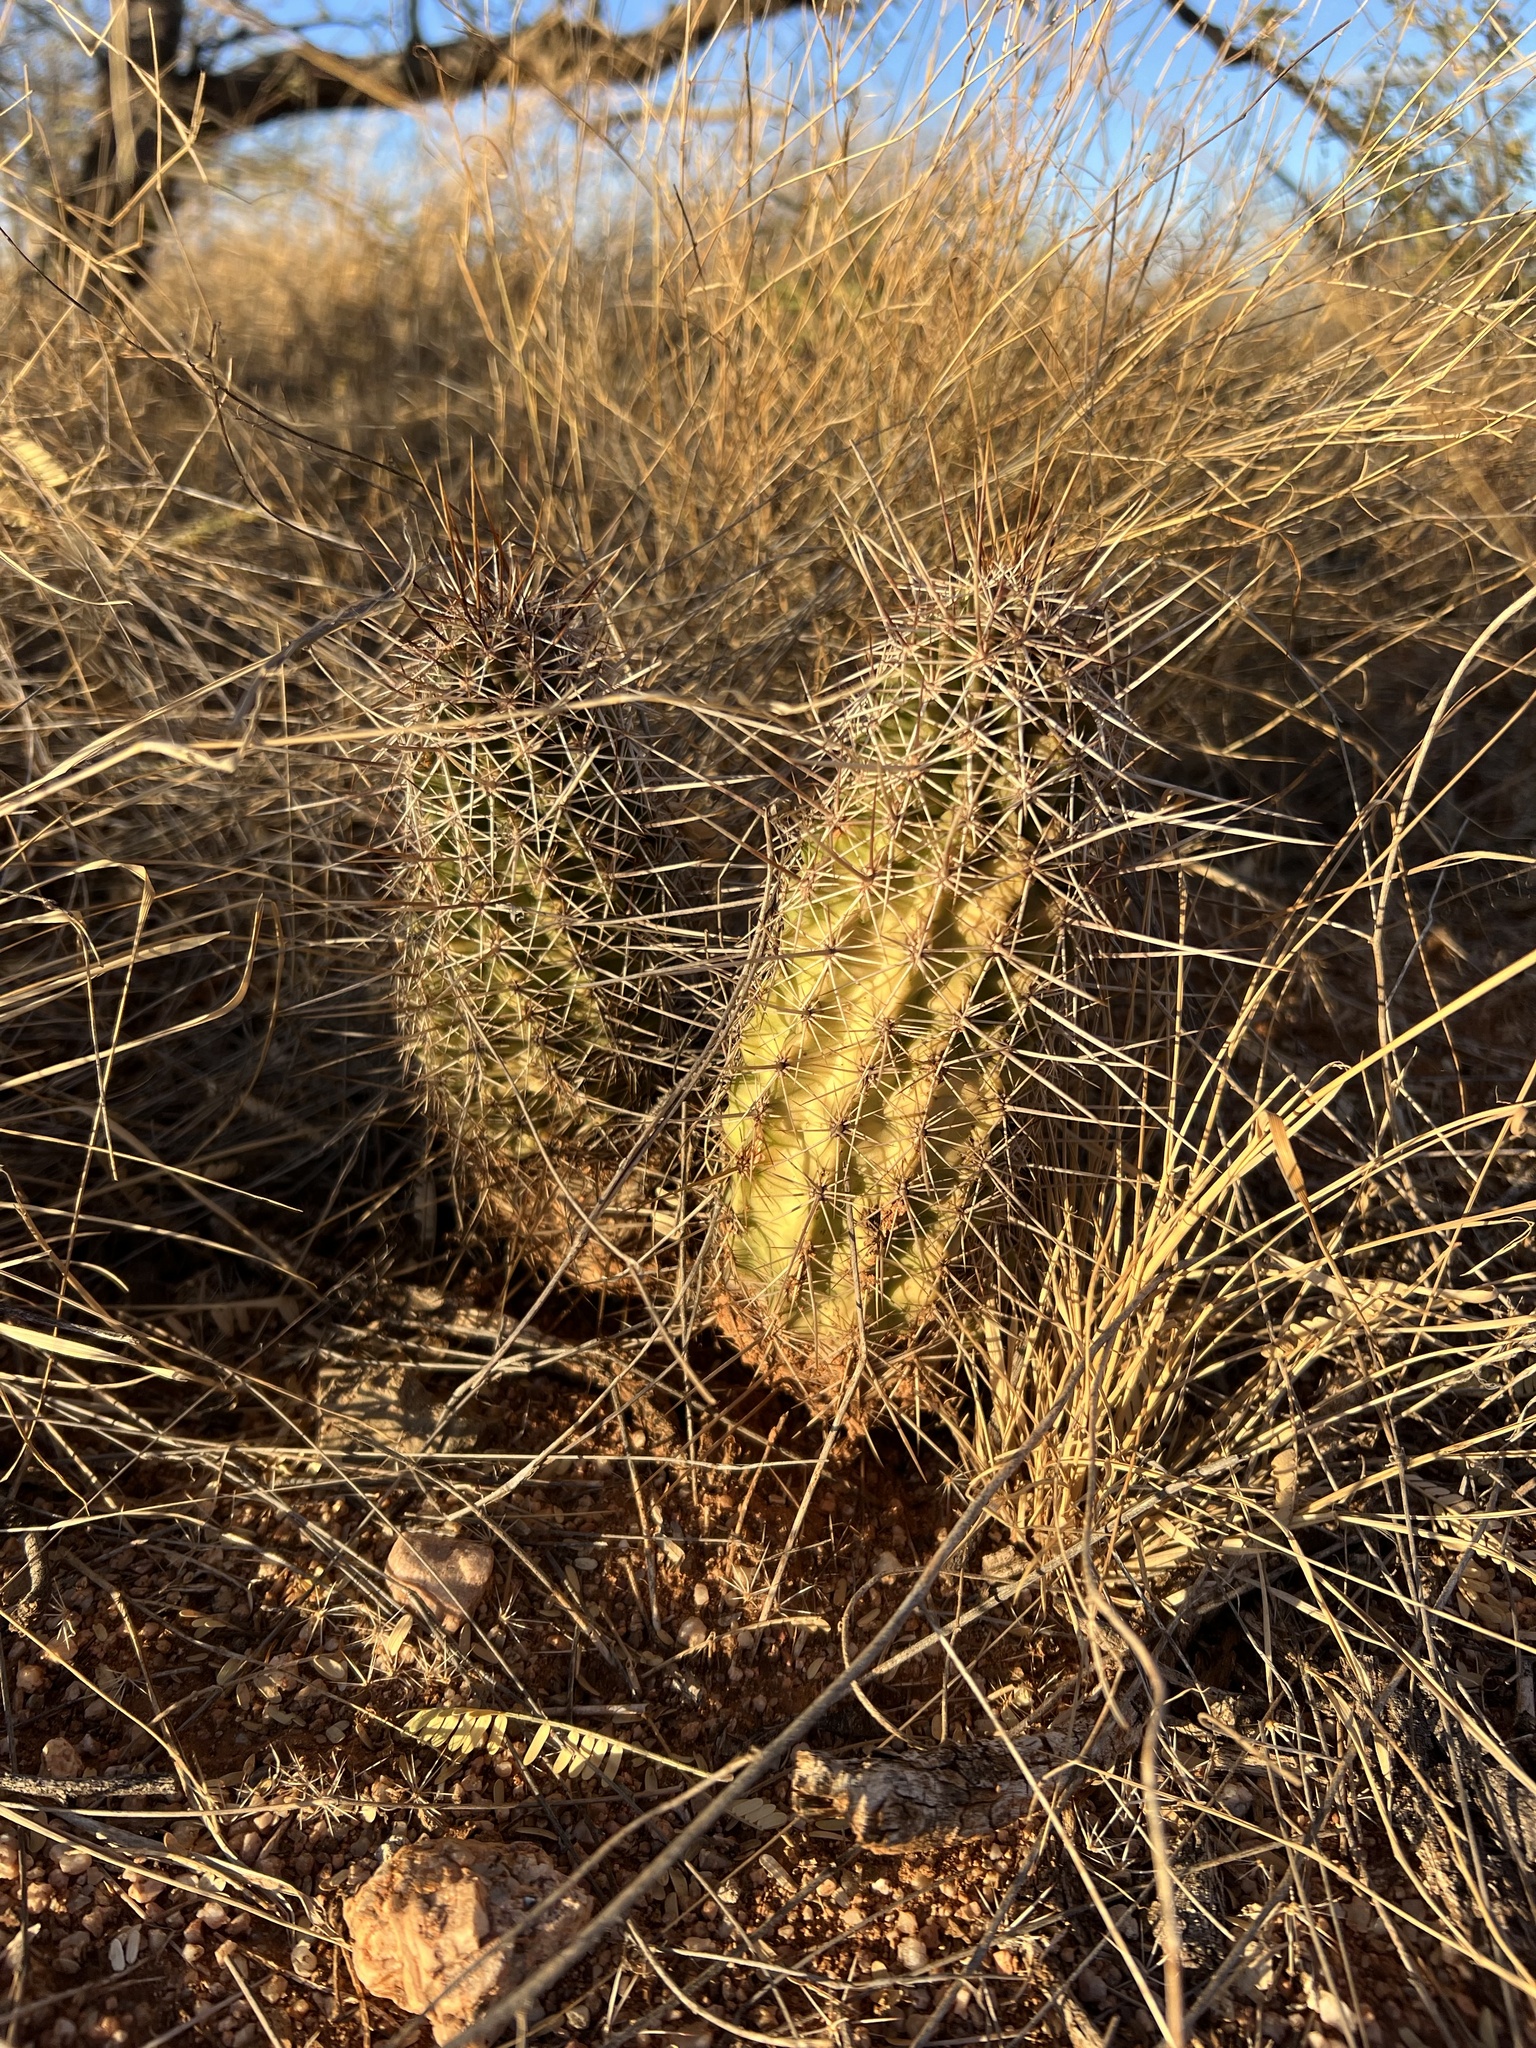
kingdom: Plantae
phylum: Tracheophyta
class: Magnoliopsida
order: Caryophyllales
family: Cactaceae
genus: Echinocereus
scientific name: Echinocereus fasciculatus
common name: Bundle hedgehog
